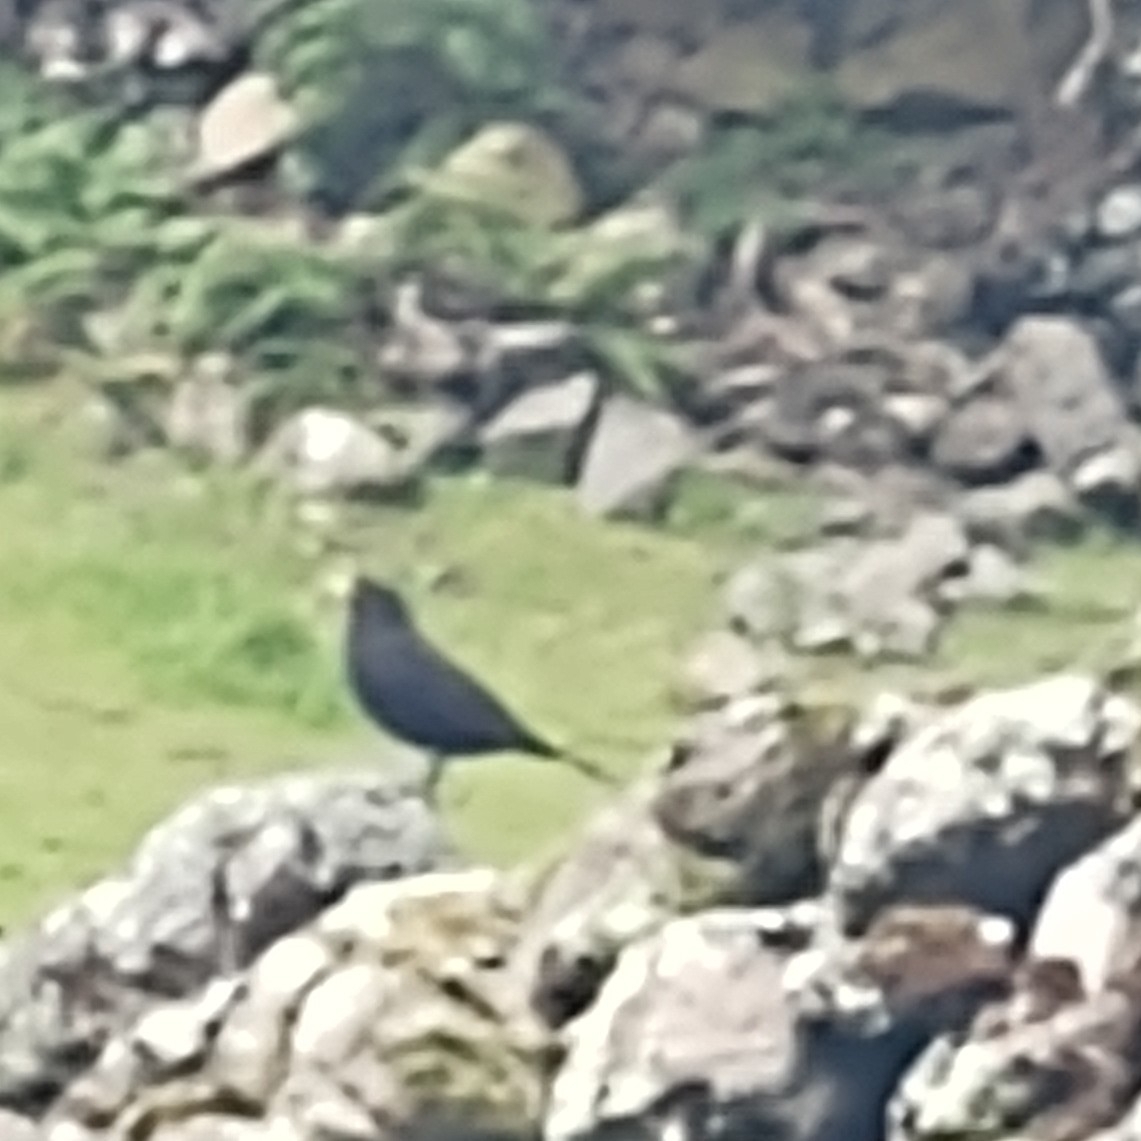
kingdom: Animalia
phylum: Chordata
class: Aves
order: Passeriformes
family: Turdidae
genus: Turdus
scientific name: Turdus merula
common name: Common blackbird
